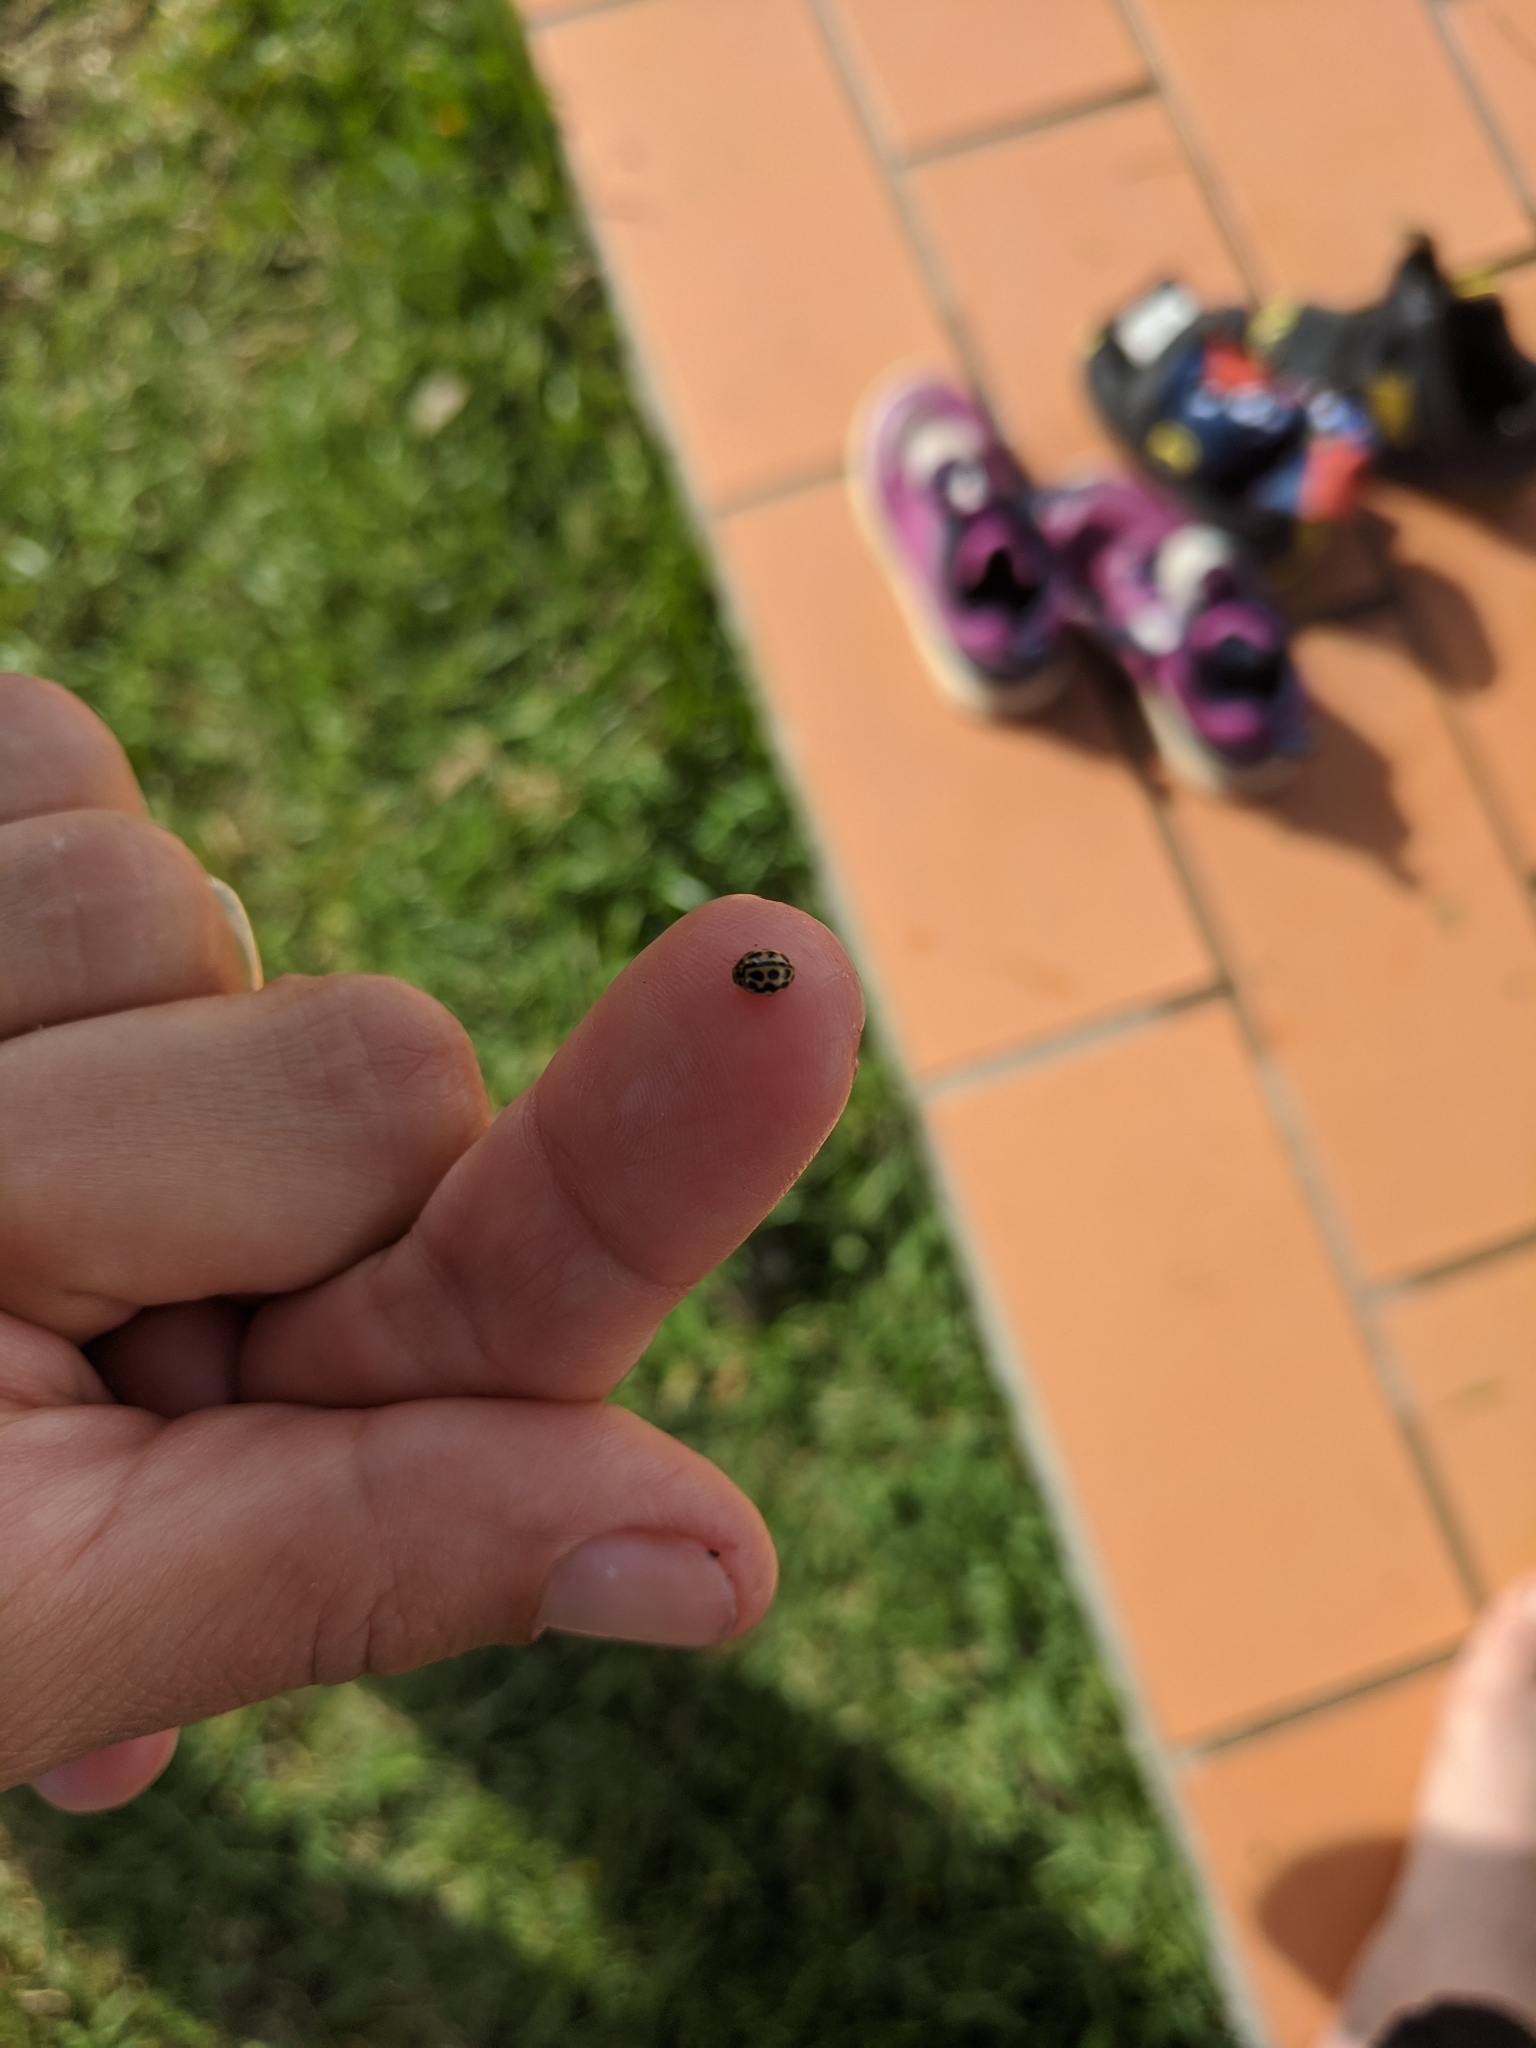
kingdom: Animalia
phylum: Arthropoda
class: Insecta
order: Coleoptera
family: Coccinellidae
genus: Tytthaspis
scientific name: Tytthaspis sedecimpunctata
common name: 16-spot ladybird
